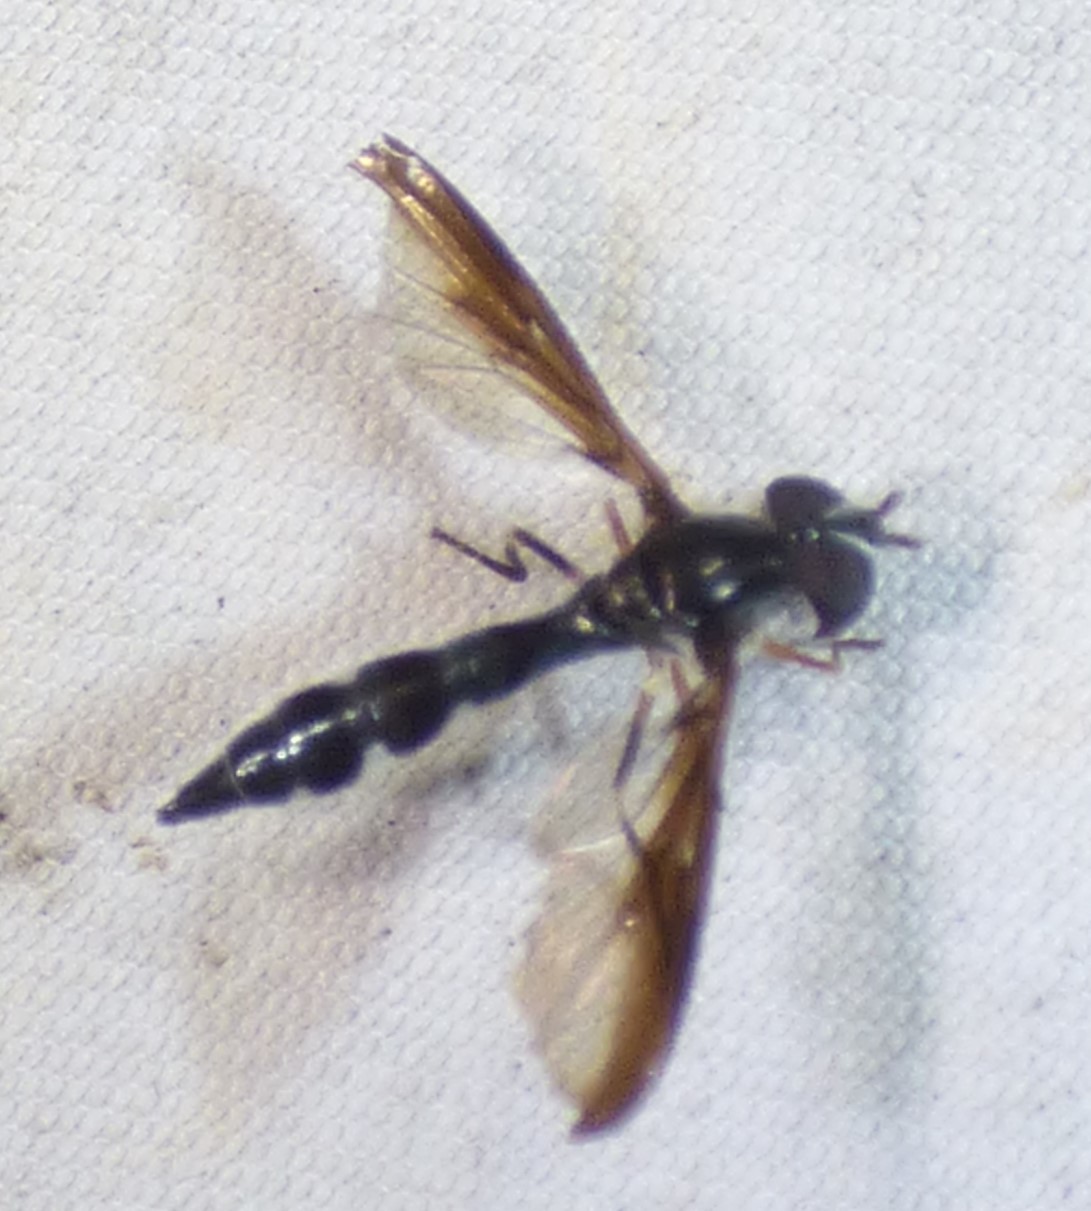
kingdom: Animalia
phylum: Arthropoda
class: Insecta
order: Diptera
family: Syrphidae
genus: Ocyptamus
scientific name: Ocyptamus costatus
